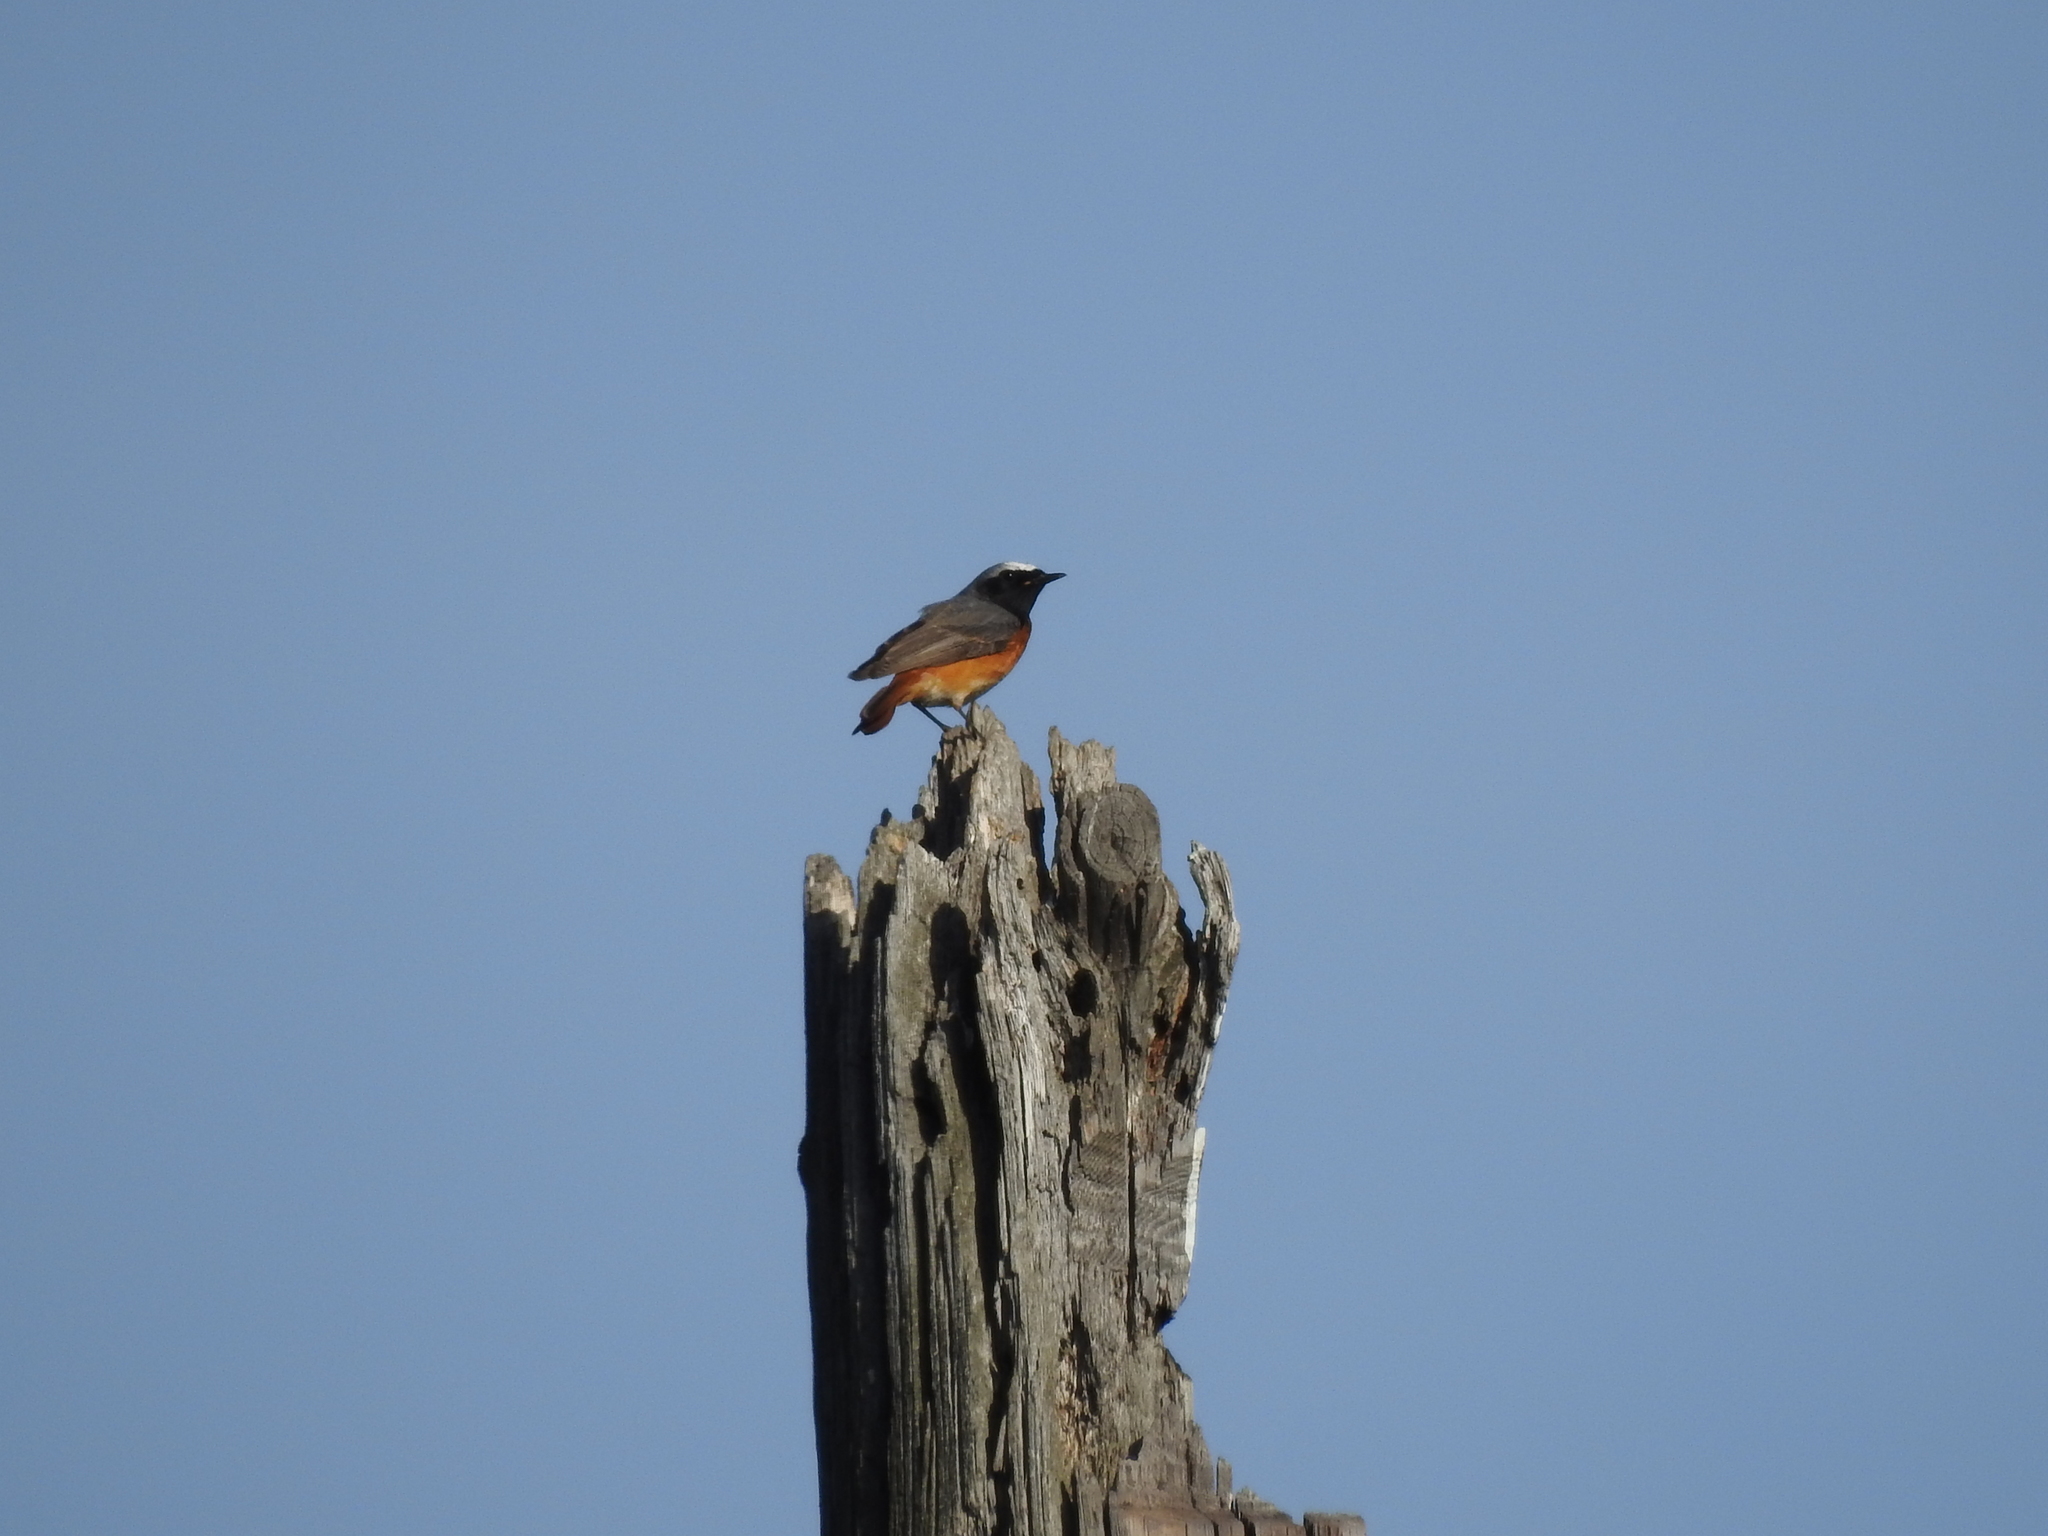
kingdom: Animalia
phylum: Chordata
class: Aves
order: Passeriformes
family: Muscicapidae
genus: Phoenicurus
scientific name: Phoenicurus phoenicurus
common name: Common redstart
